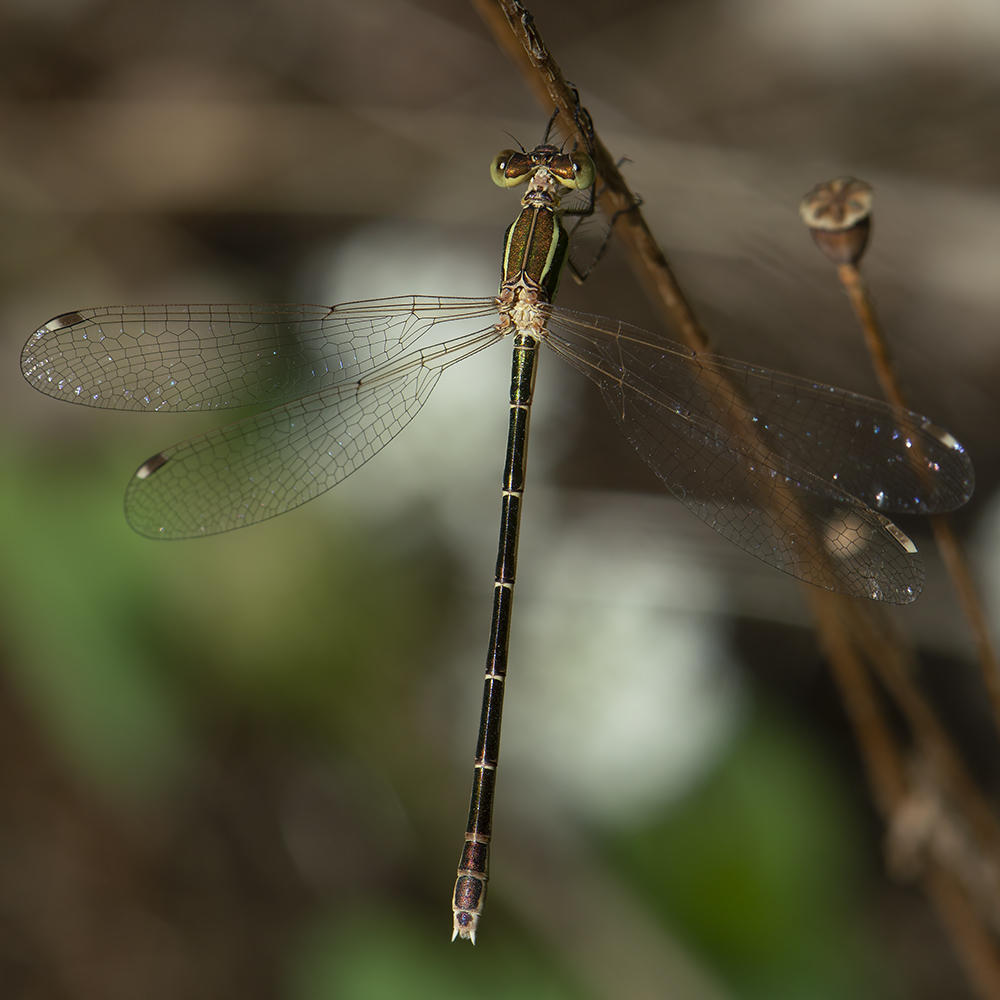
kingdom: Animalia
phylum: Arthropoda
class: Insecta
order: Odonata
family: Lestidae
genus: Lestes
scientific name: Lestes barbarus
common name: Migrant spreadwing
